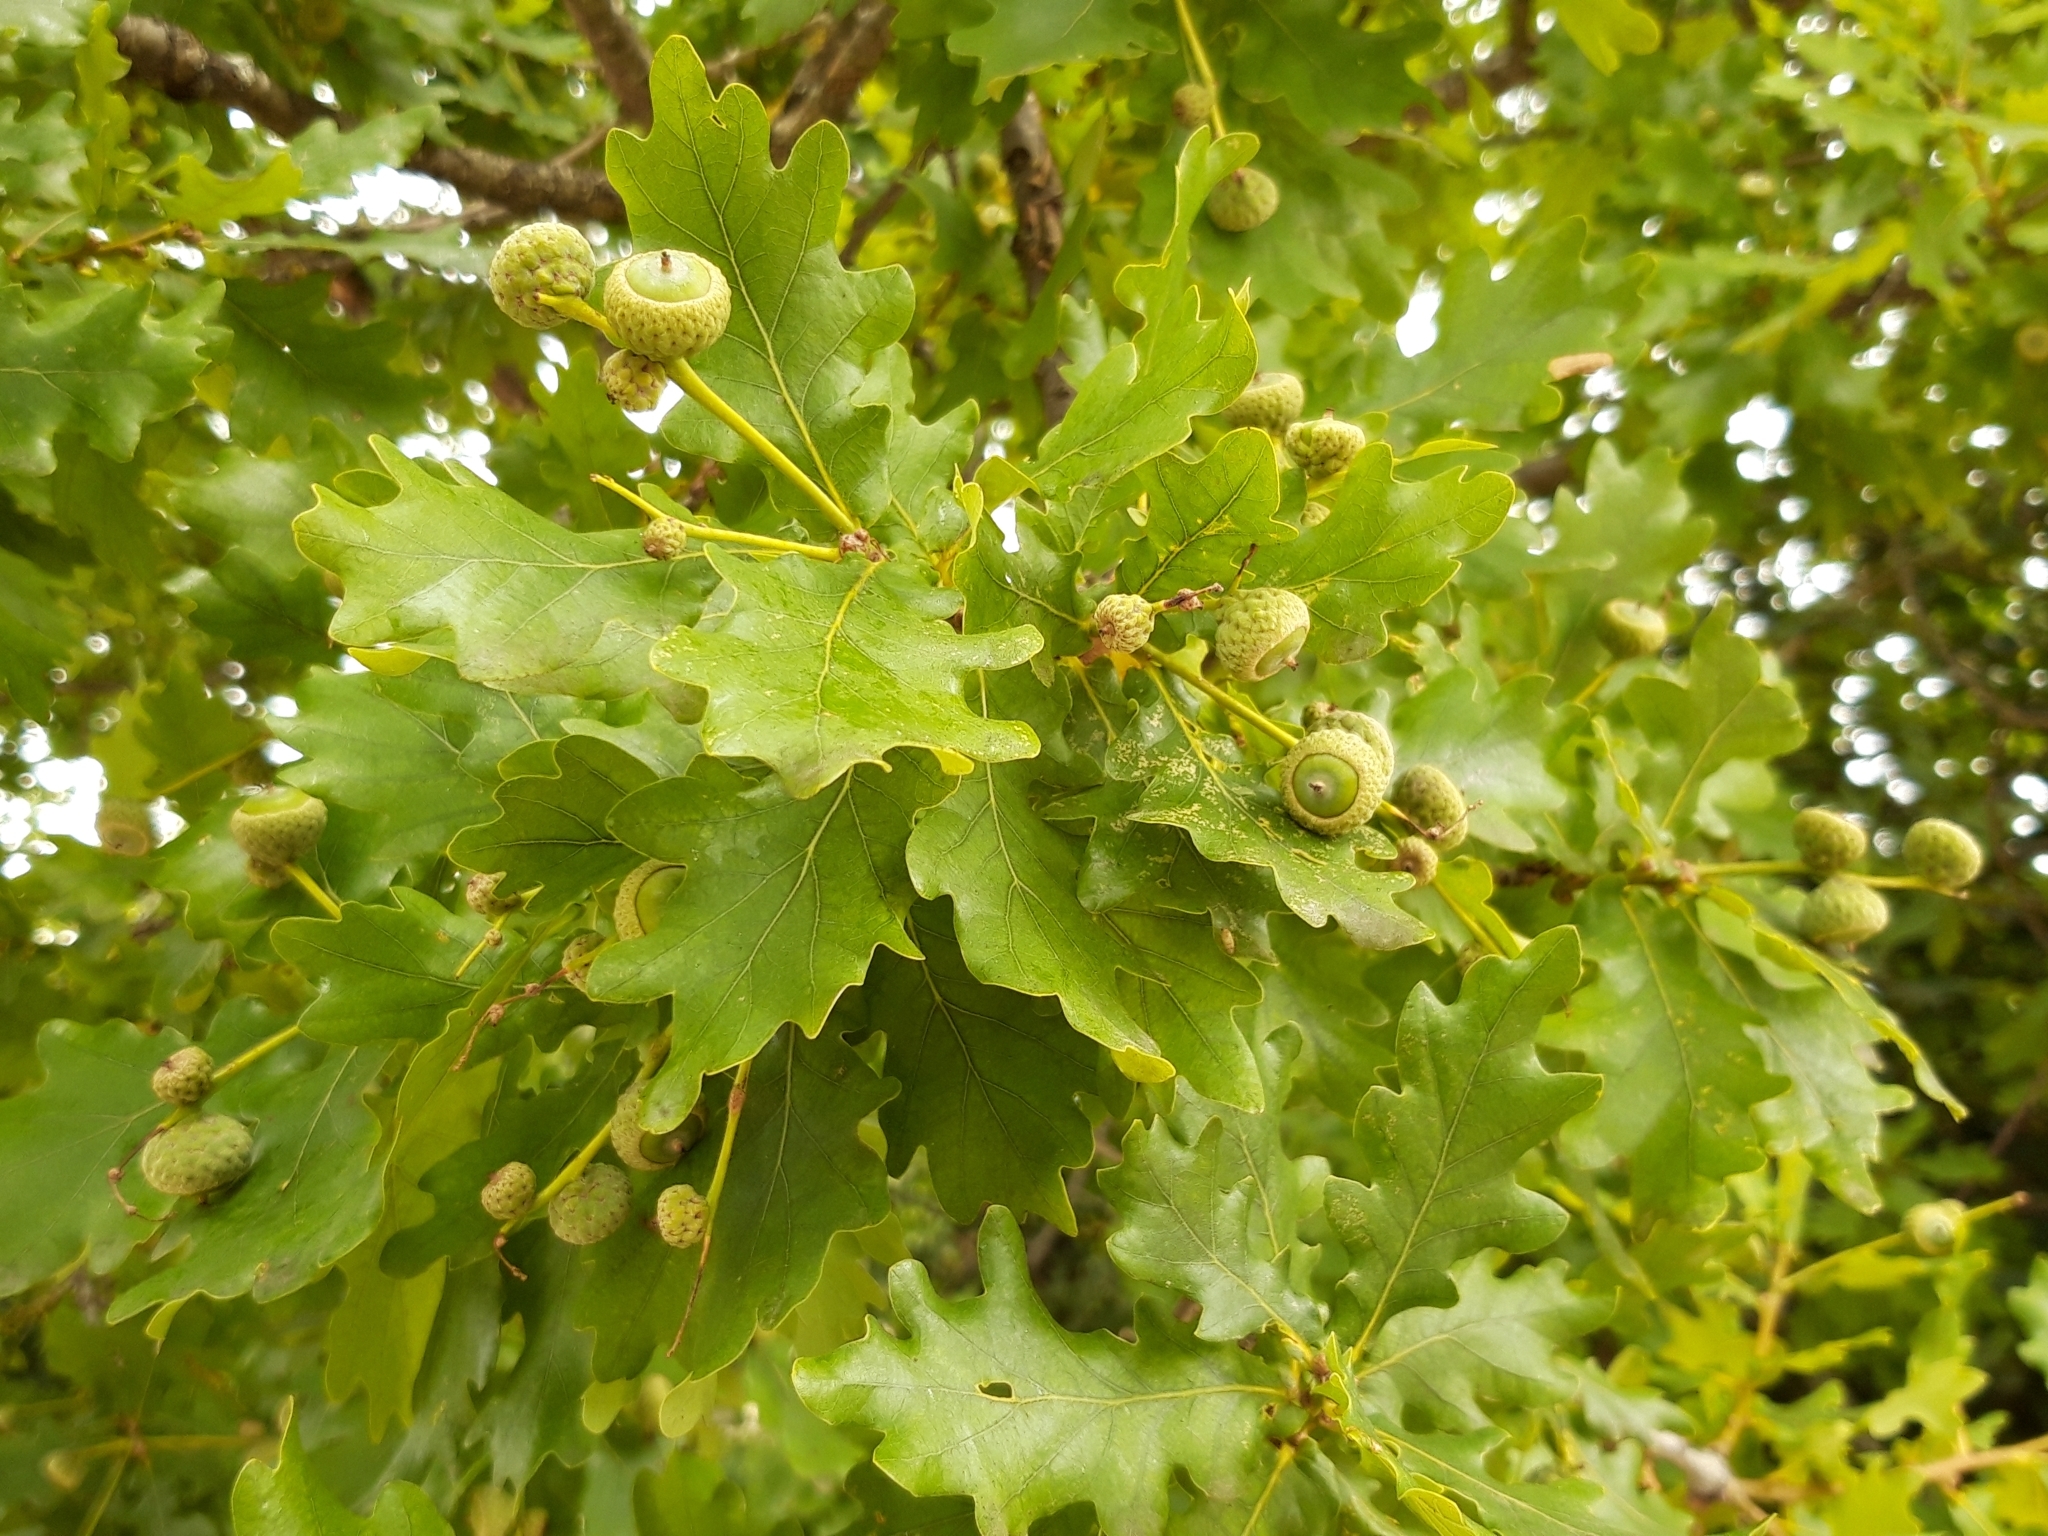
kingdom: Plantae
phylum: Tracheophyta
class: Magnoliopsida
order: Fagales
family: Fagaceae
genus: Quercus
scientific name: Quercus robur
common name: Pedunculate oak
